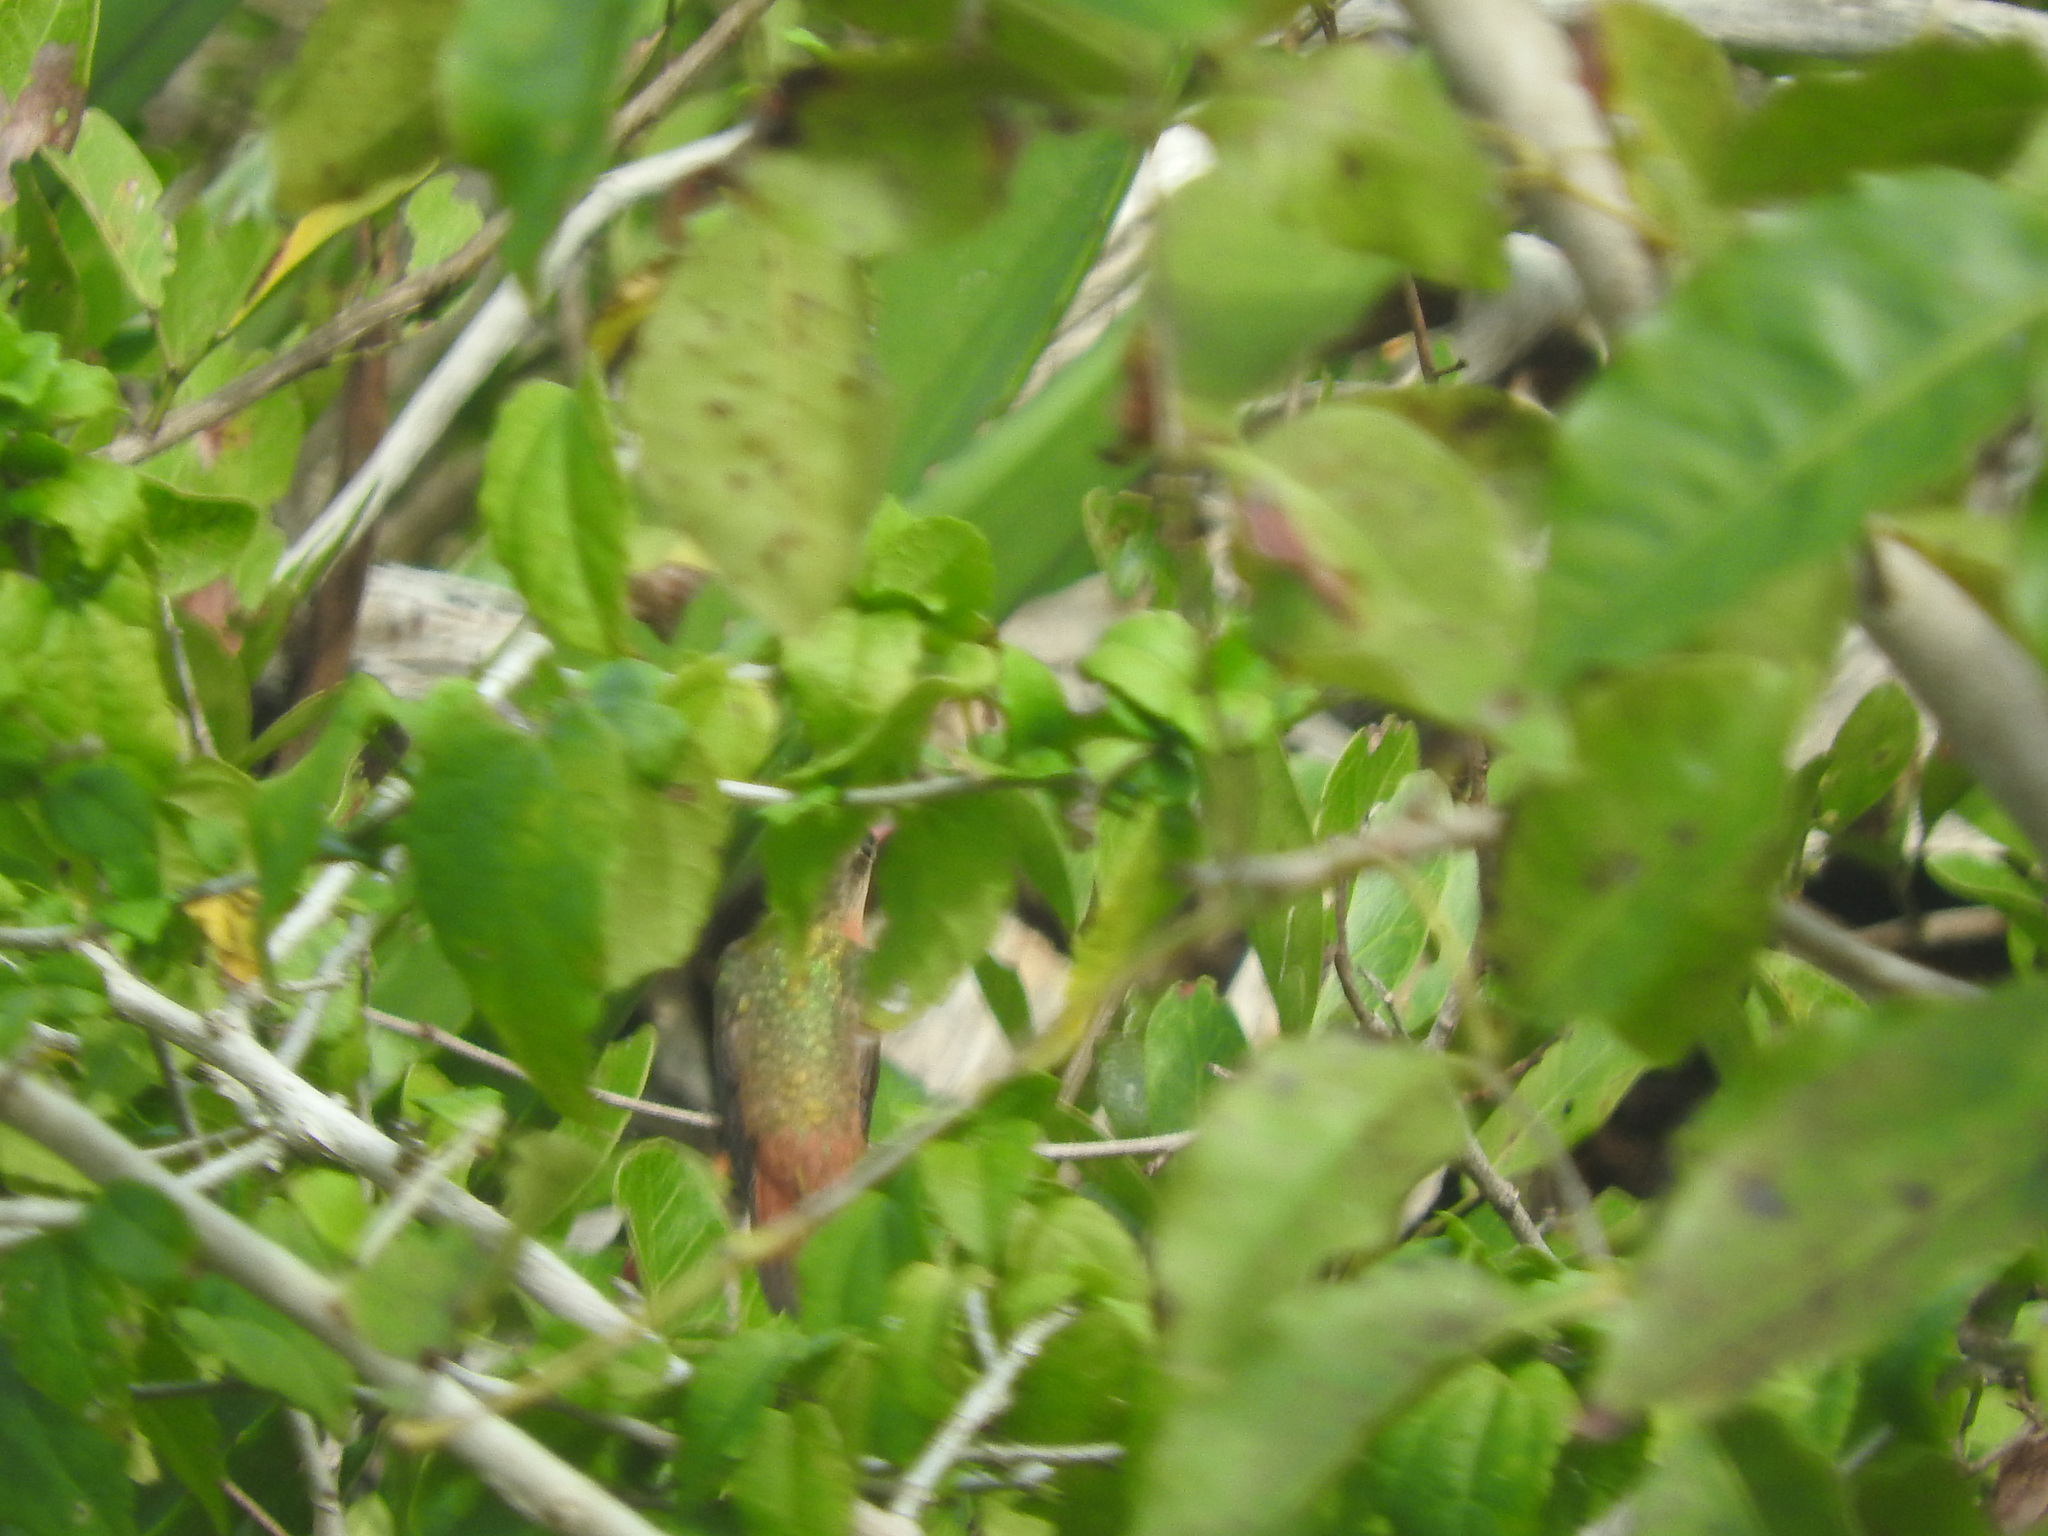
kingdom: Animalia
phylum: Chordata
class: Aves
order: Apodiformes
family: Trochilidae
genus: Amazilia
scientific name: Amazilia rutila
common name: Cinnamon hummingbird
